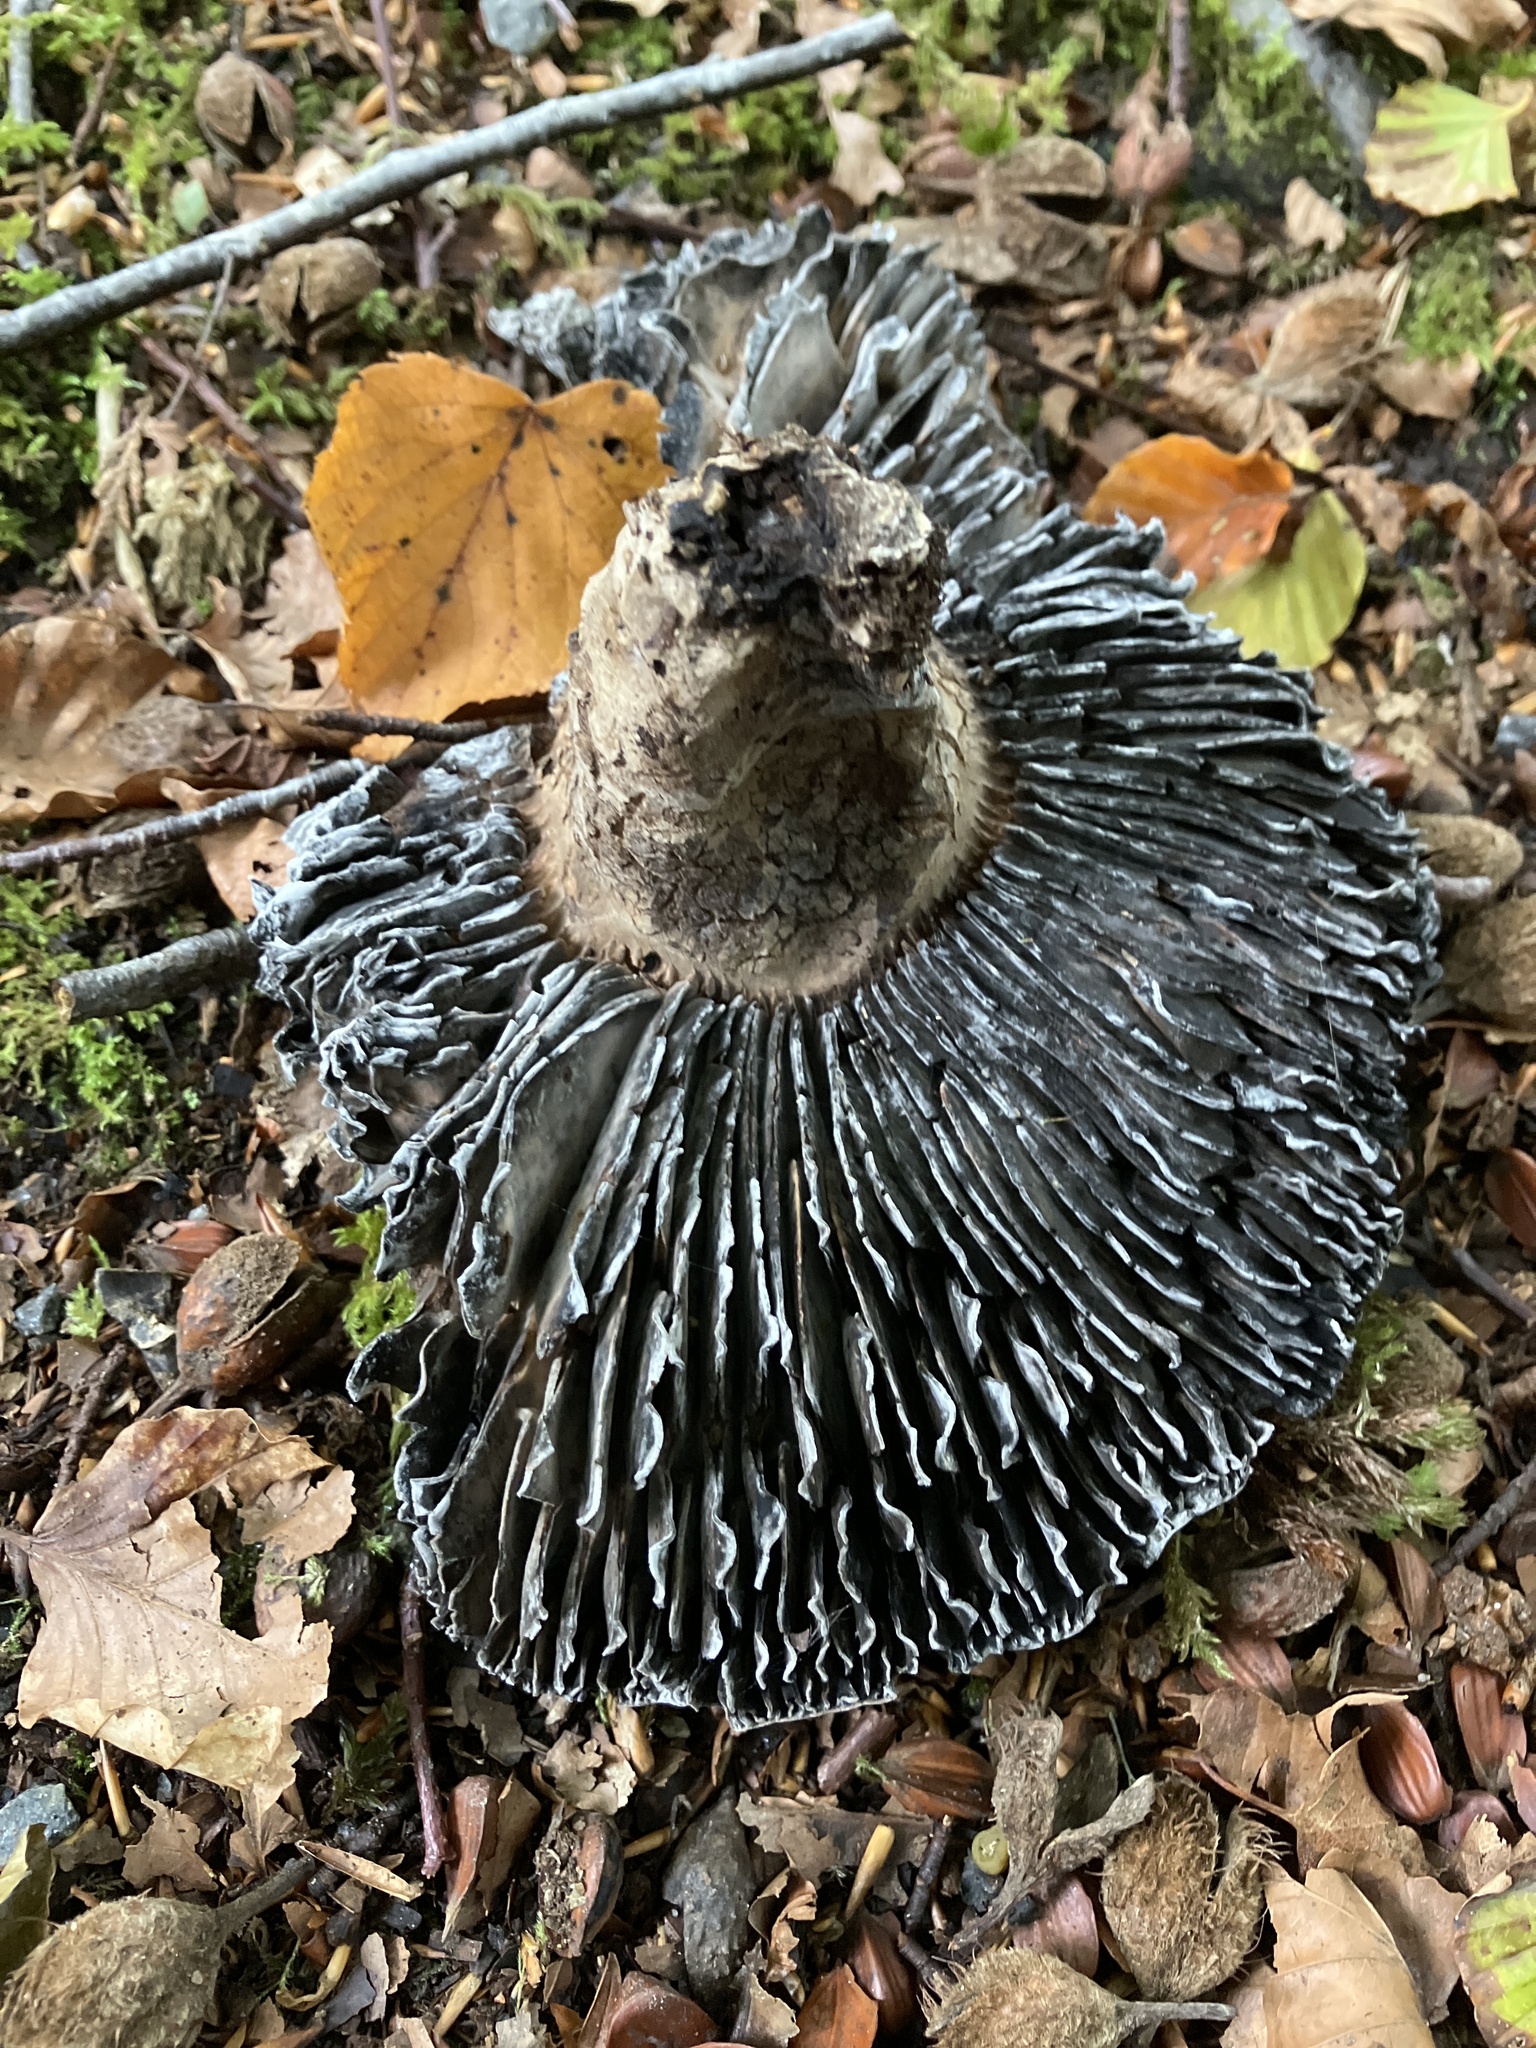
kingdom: Fungi
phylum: Basidiomycota
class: Agaricomycetes
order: Russulales
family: Russulaceae
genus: Russula
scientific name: Russula adusta
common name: Winecork brittlegill
